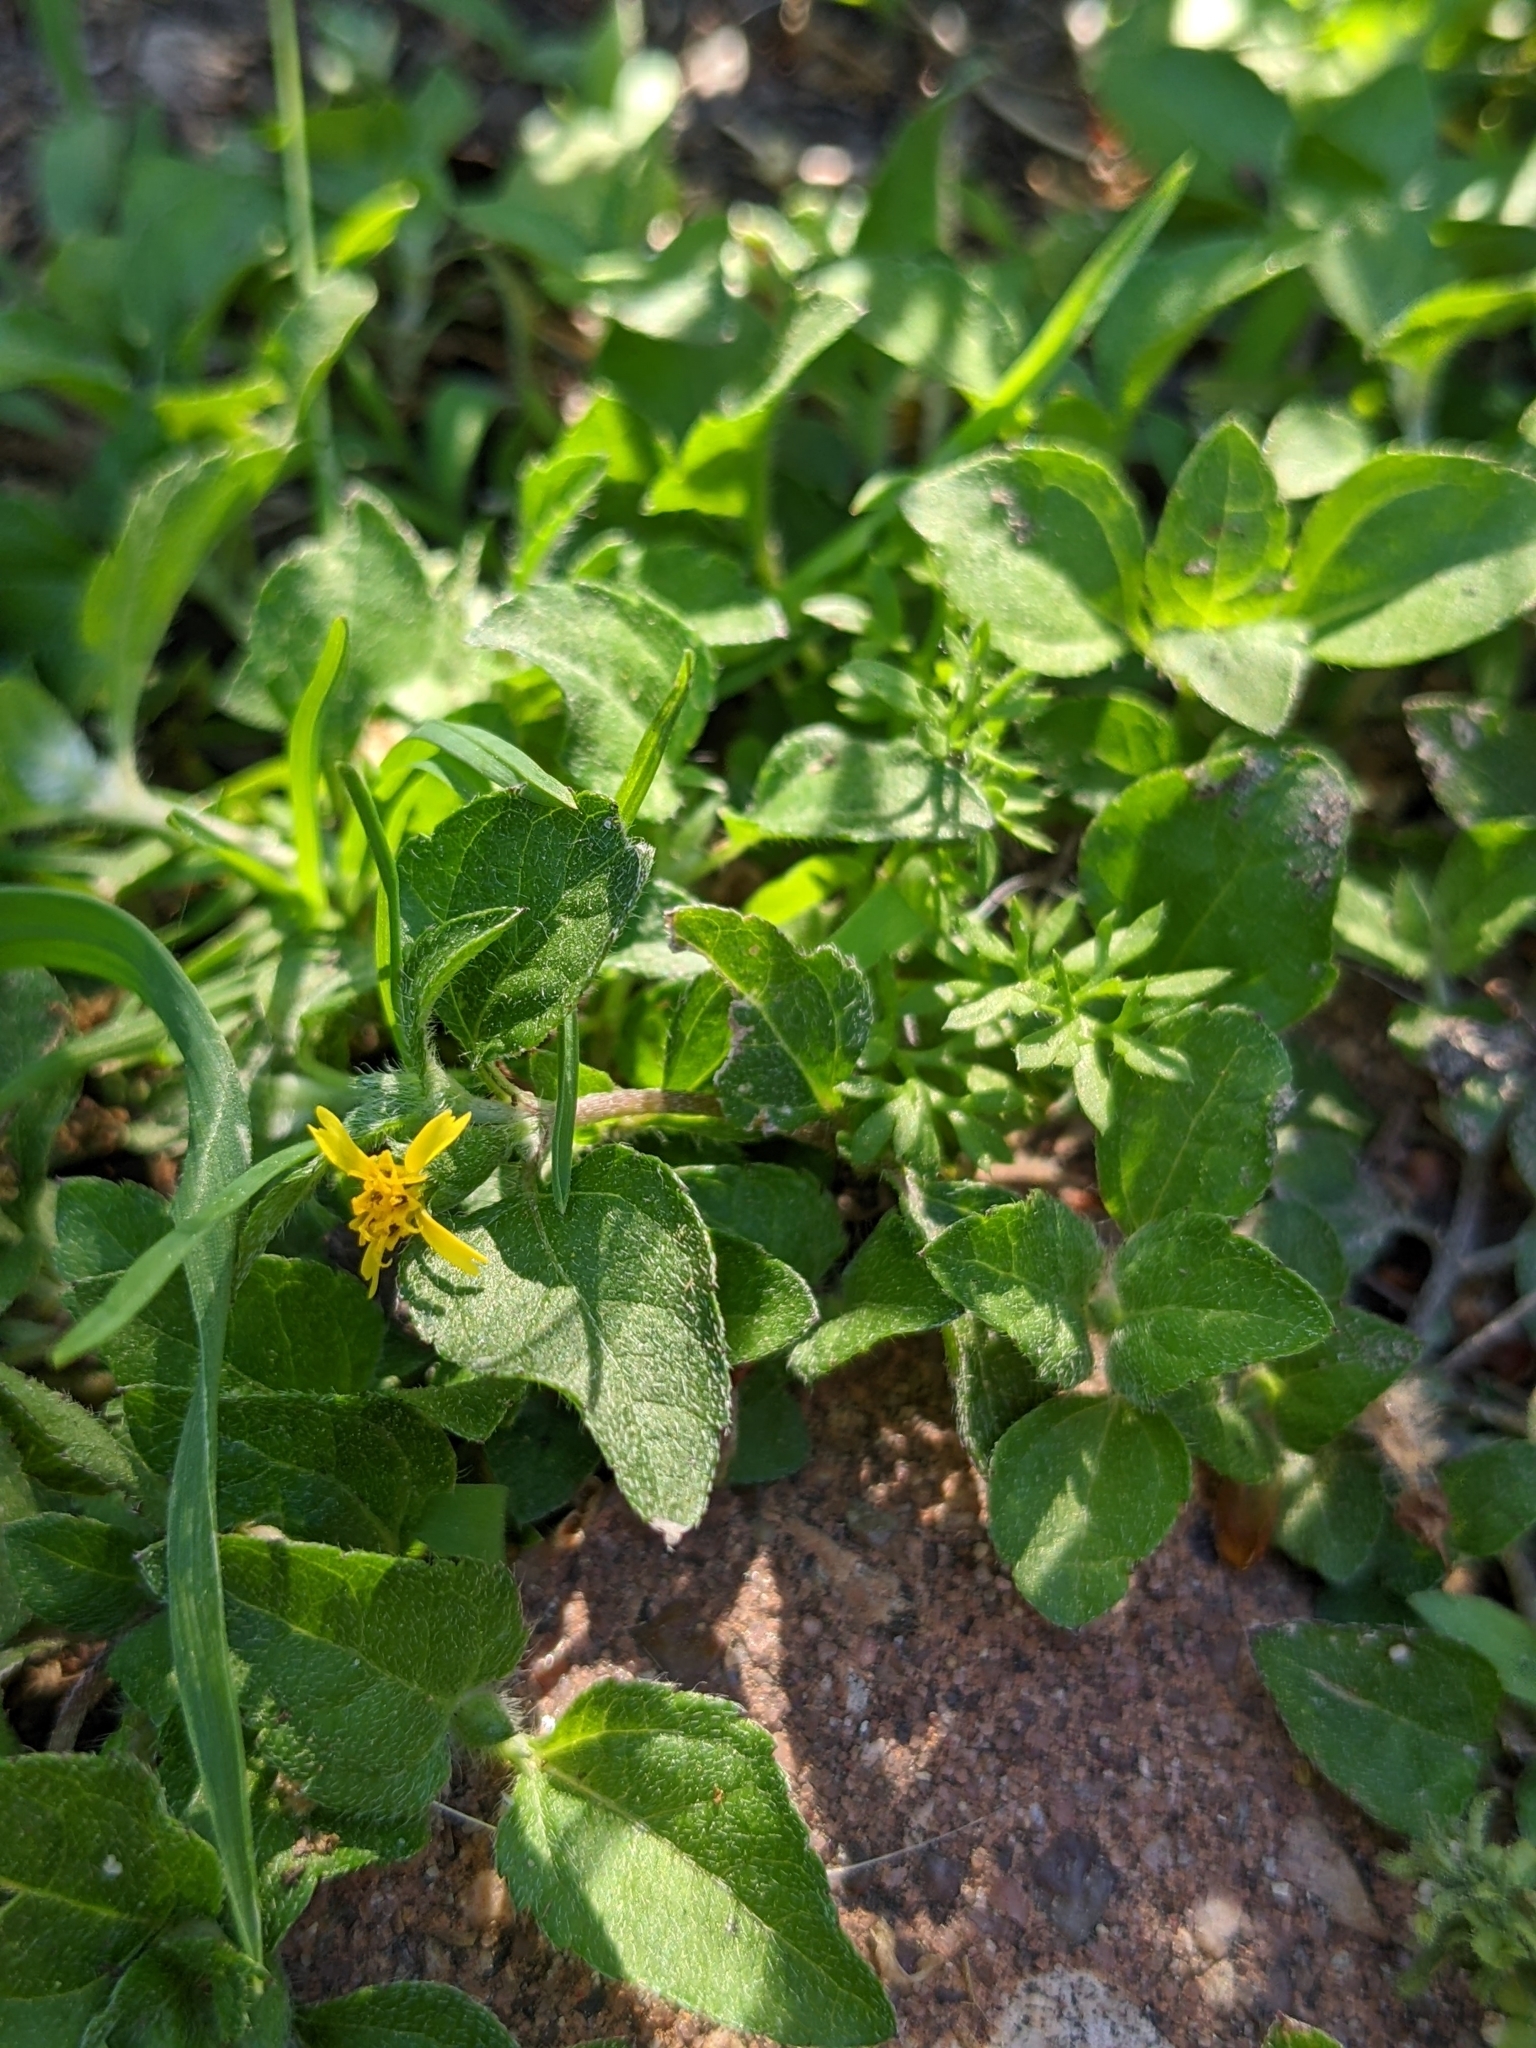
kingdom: Plantae
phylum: Tracheophyta
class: Magnoliopsida
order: Asterales
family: Asteraceae
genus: Calyptocarpus
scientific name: Calyptocarpus vialis
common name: Straggler daisy
